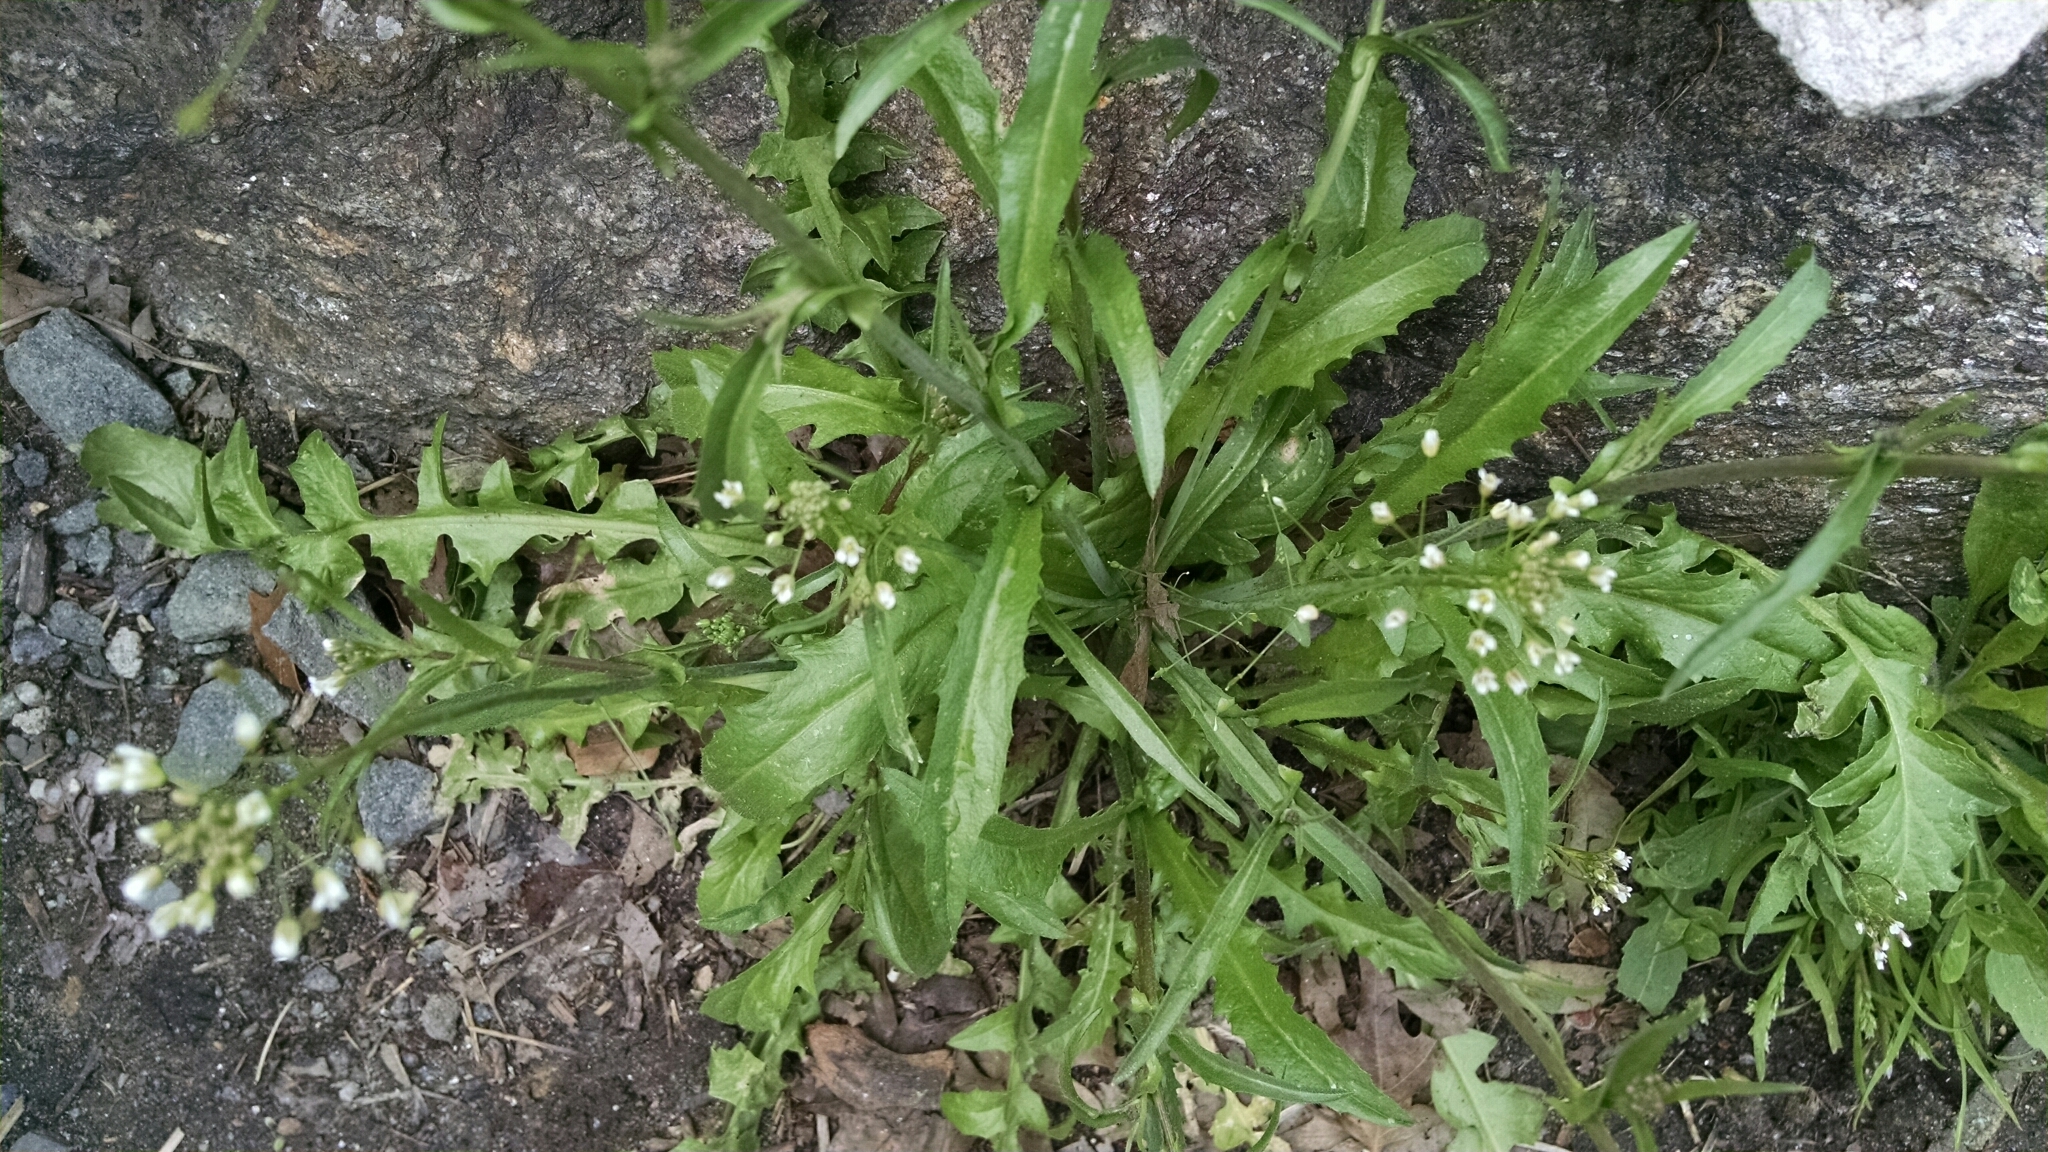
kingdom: Plantae
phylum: Tracheophyta
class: Magnoliopsida
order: Brassicales
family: Brassicaceae
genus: Capsella
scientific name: Capsella bursa-pastoris
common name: Shepherd's purse
